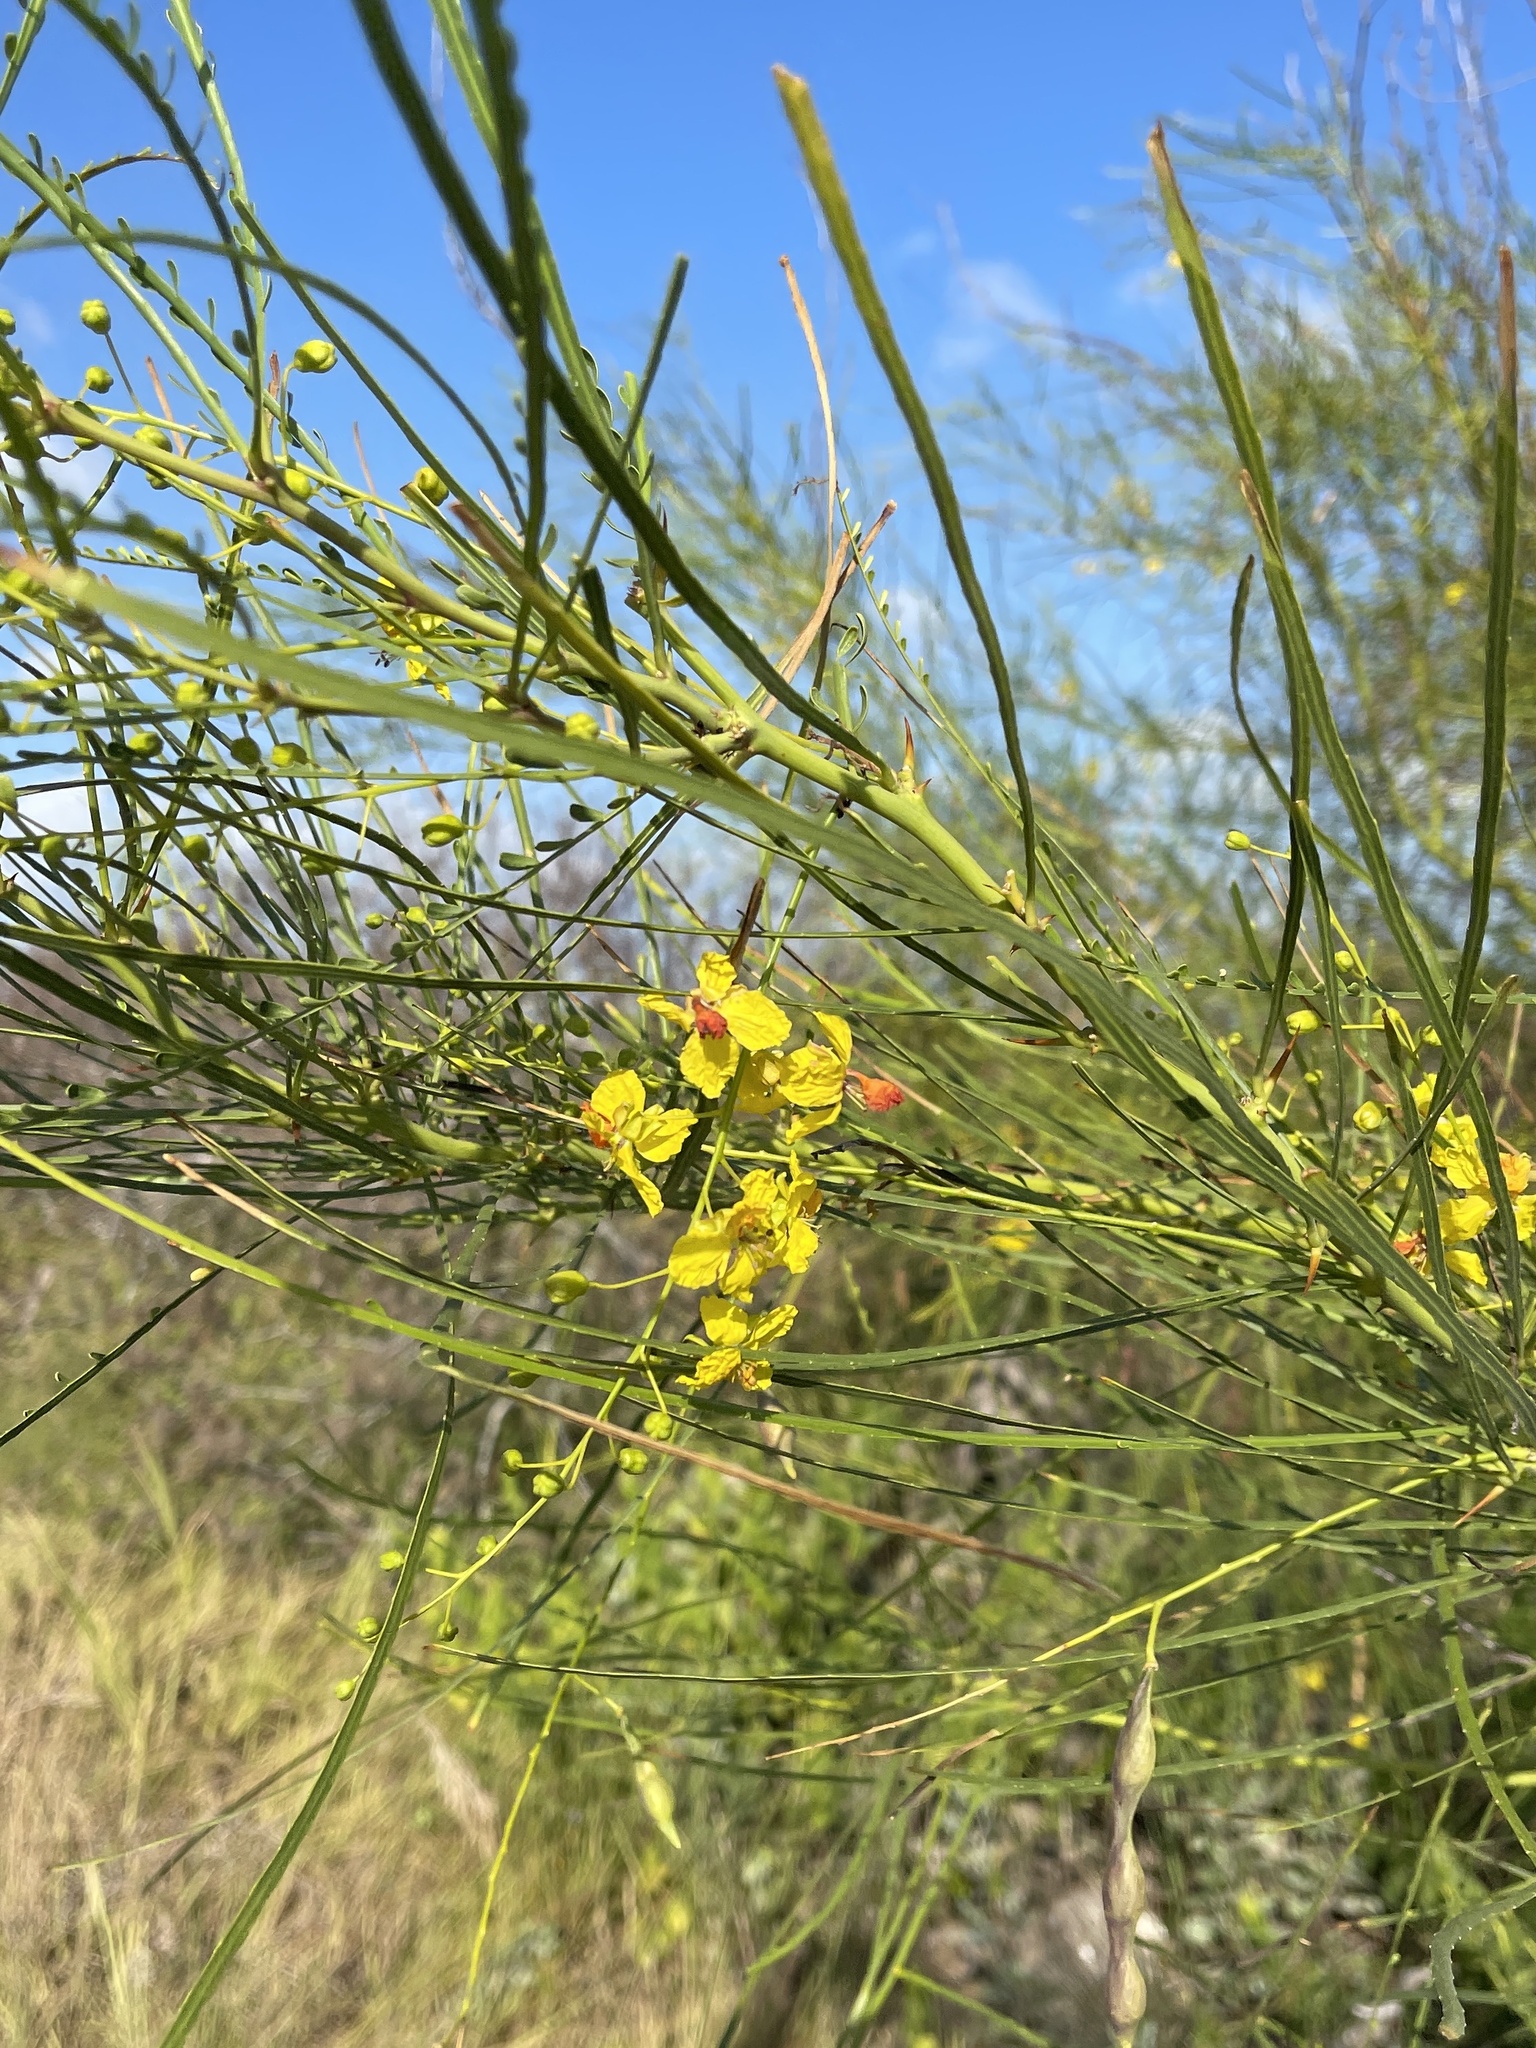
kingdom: Plantae
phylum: Tracheophyta
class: Magnoliopsida
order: Fabales
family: Fabaceae
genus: Parkinsonia
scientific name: Parkinsonia aculeata
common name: Jerusalem thorn
